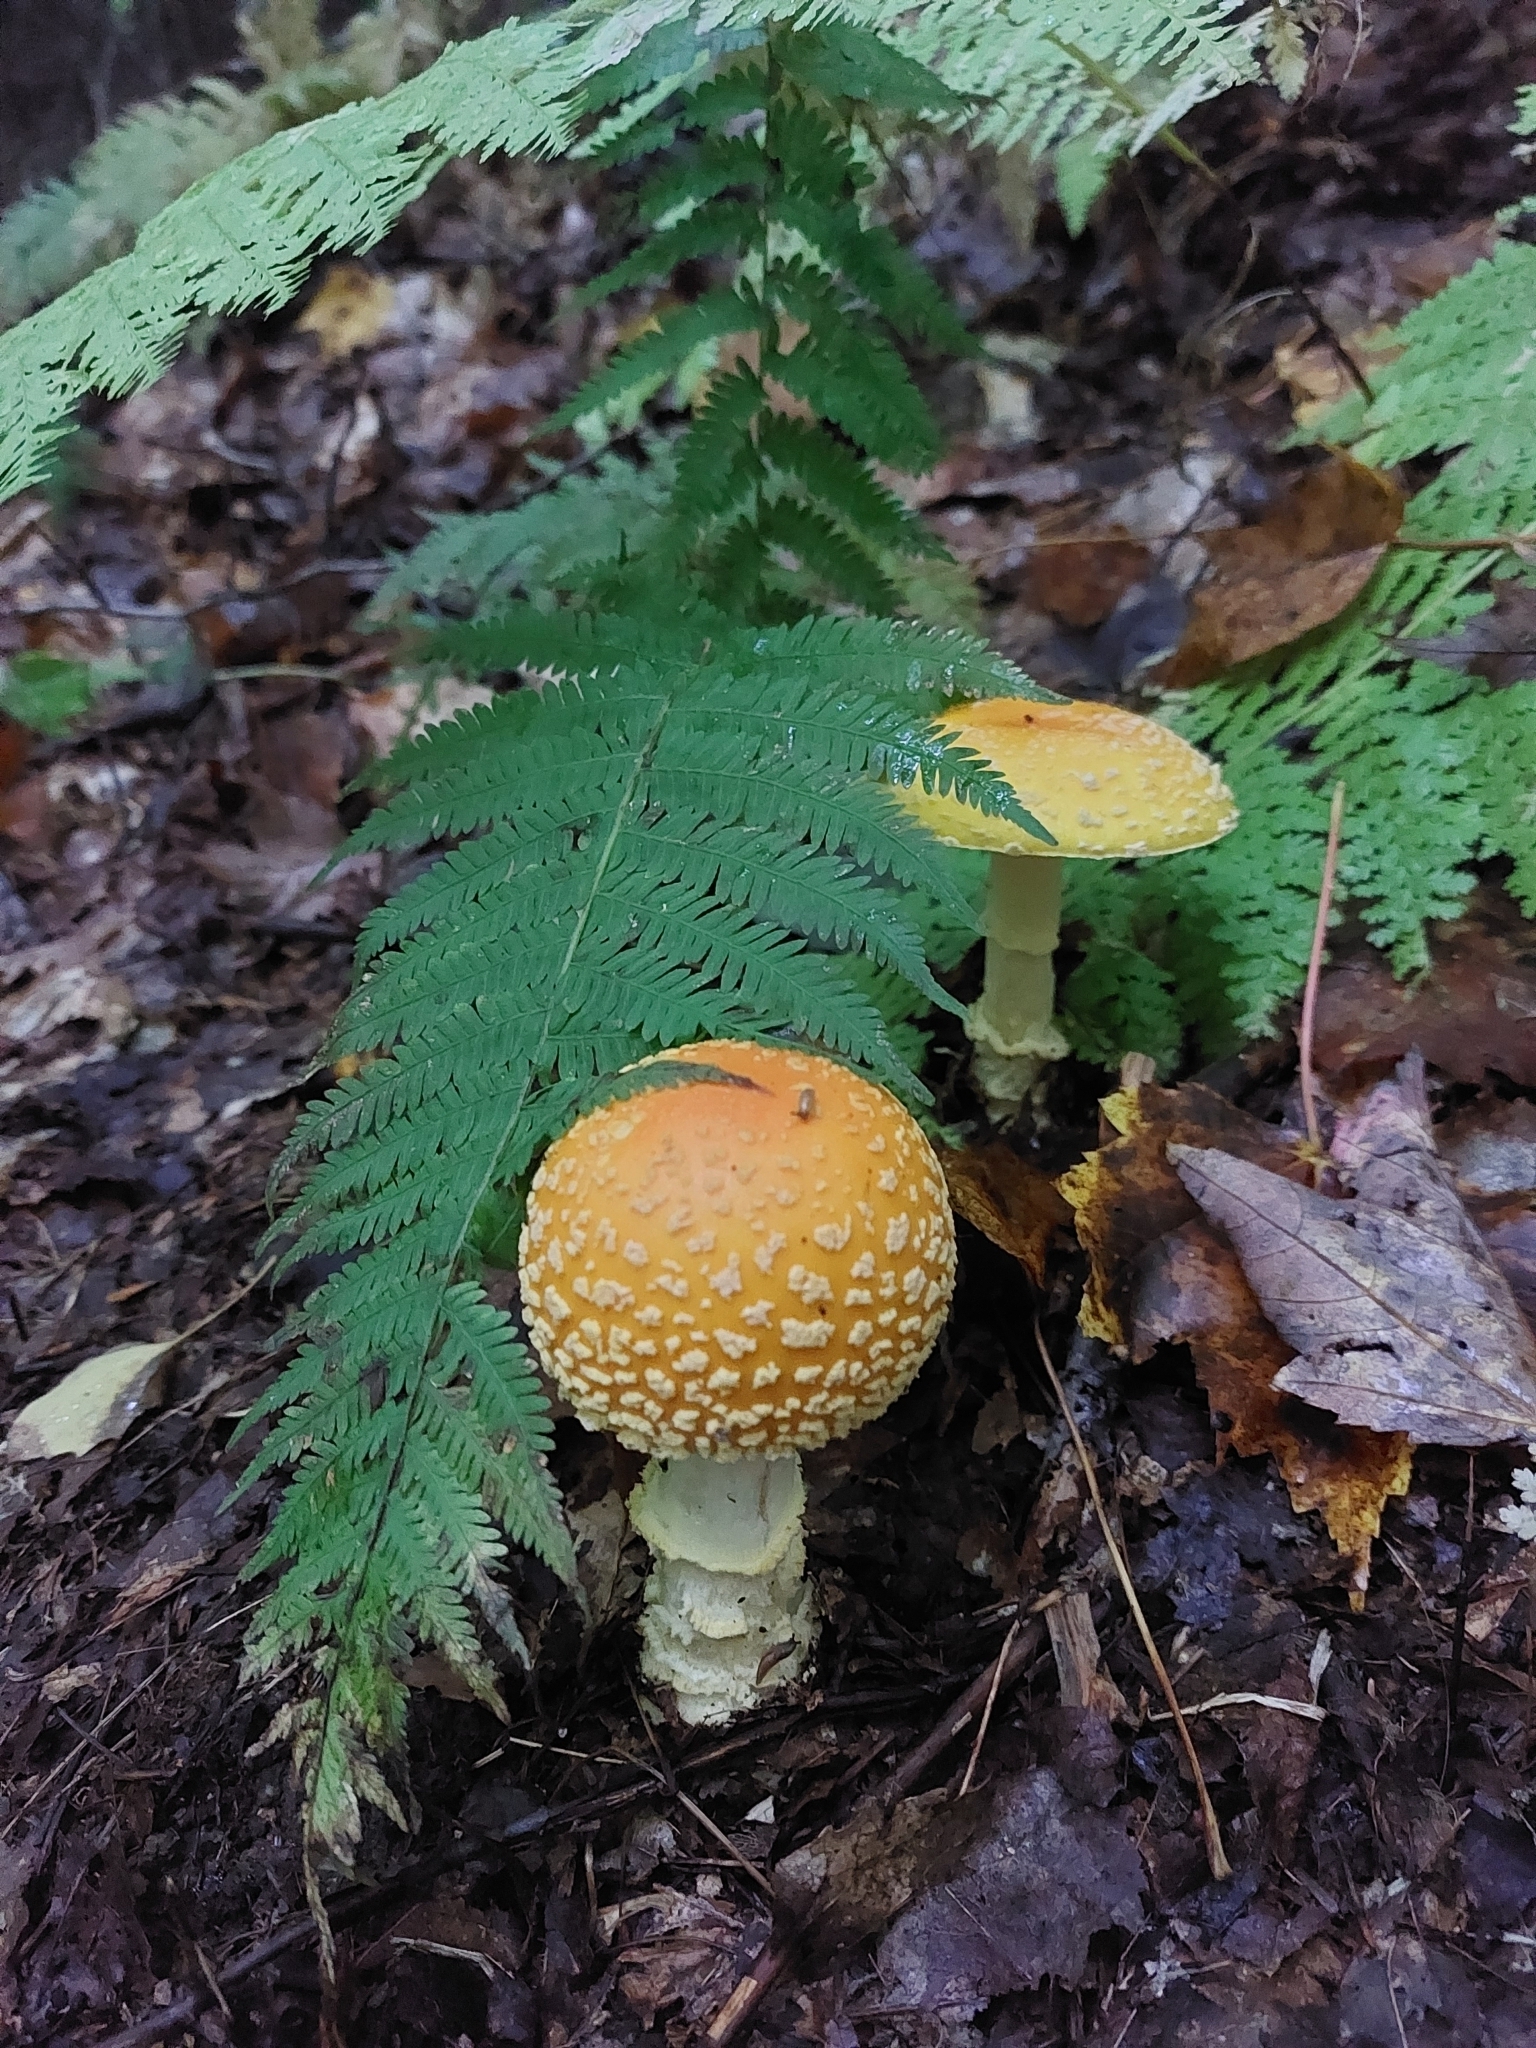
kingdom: Fungi
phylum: Basidiomycota
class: Agaricomycetes
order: Agaricales
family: Amanitaceae
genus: Amanita
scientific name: Amanita muscaria
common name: Fly agaric
